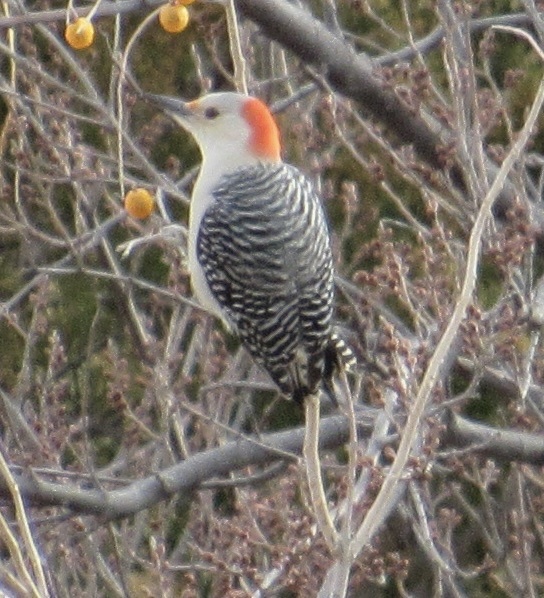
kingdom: Animalia
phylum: Chordata
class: Aves
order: Piciformes
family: Picidae
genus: Melanerpes
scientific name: Melanerpes carolinus
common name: Red-bellied woodpecker
